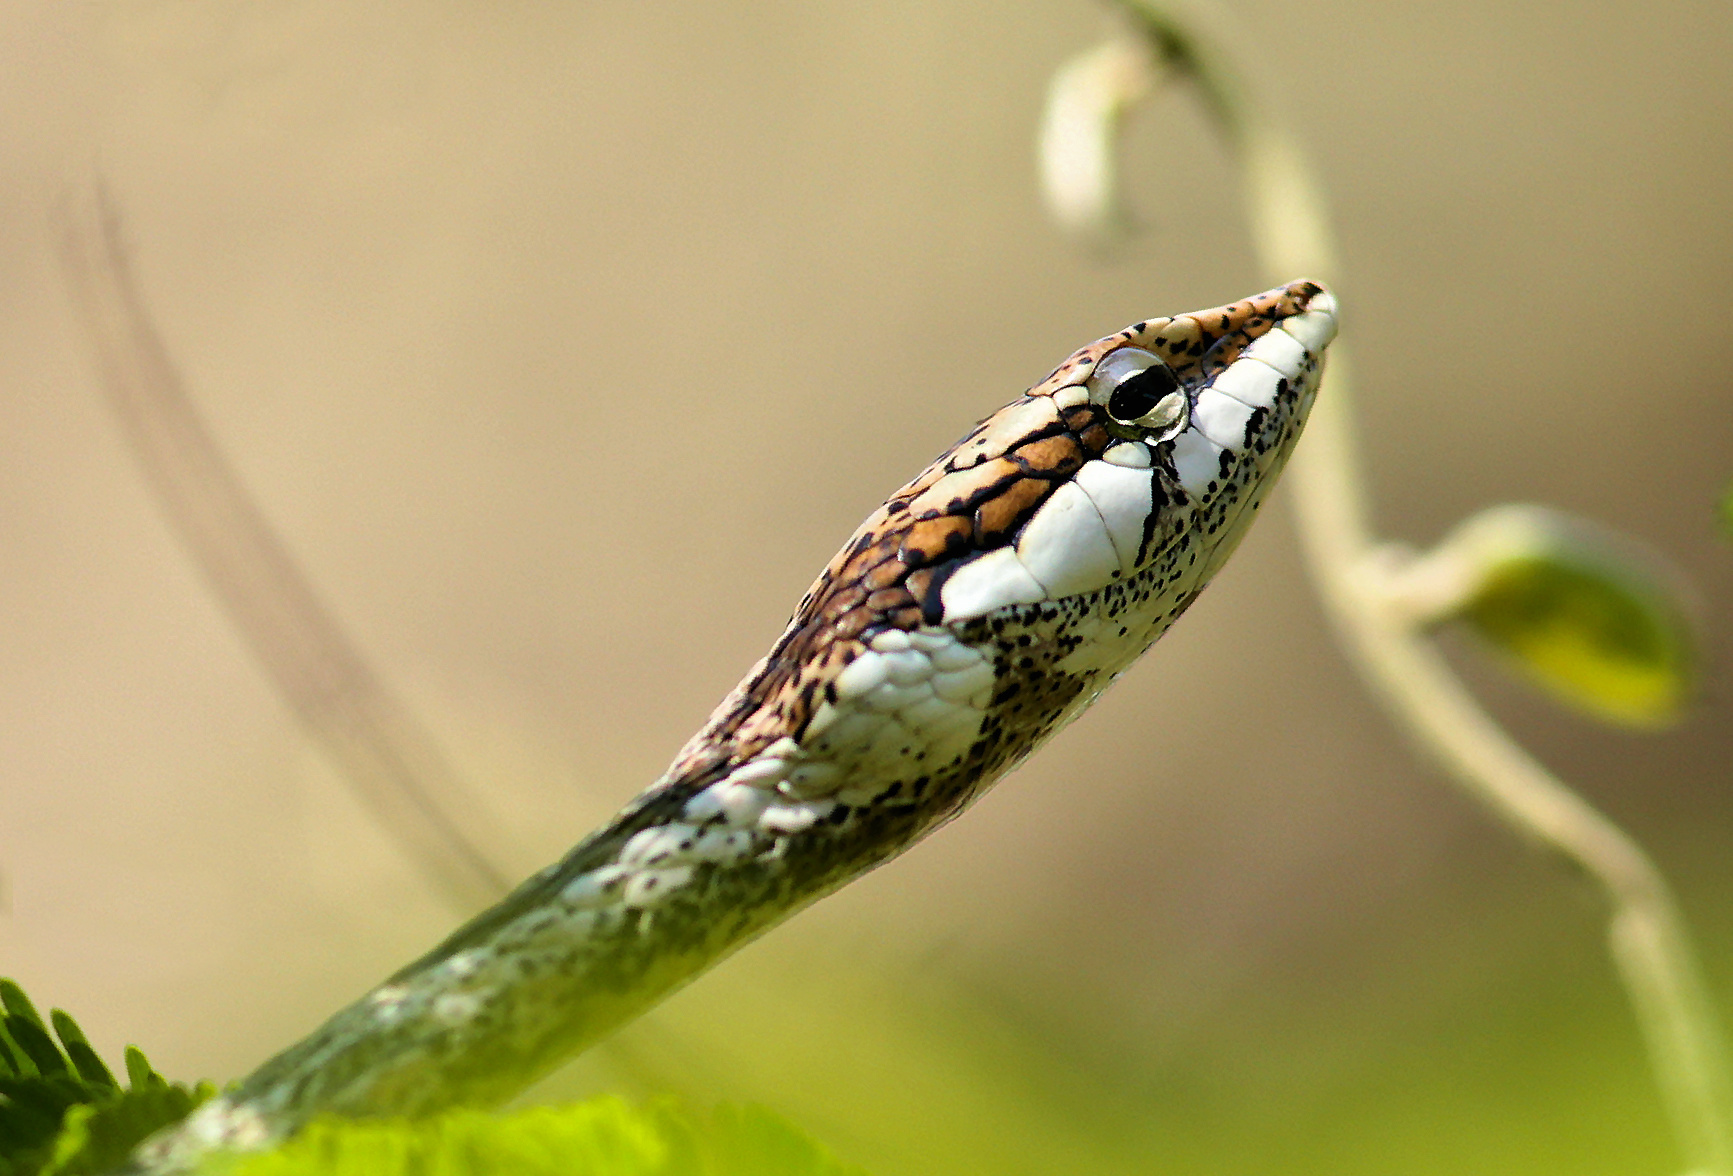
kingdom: Animalia
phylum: Chordata
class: Squamata
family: Colubridae
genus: Thelotornis
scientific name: Thelotornis capensis
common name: Savanna vine snake
